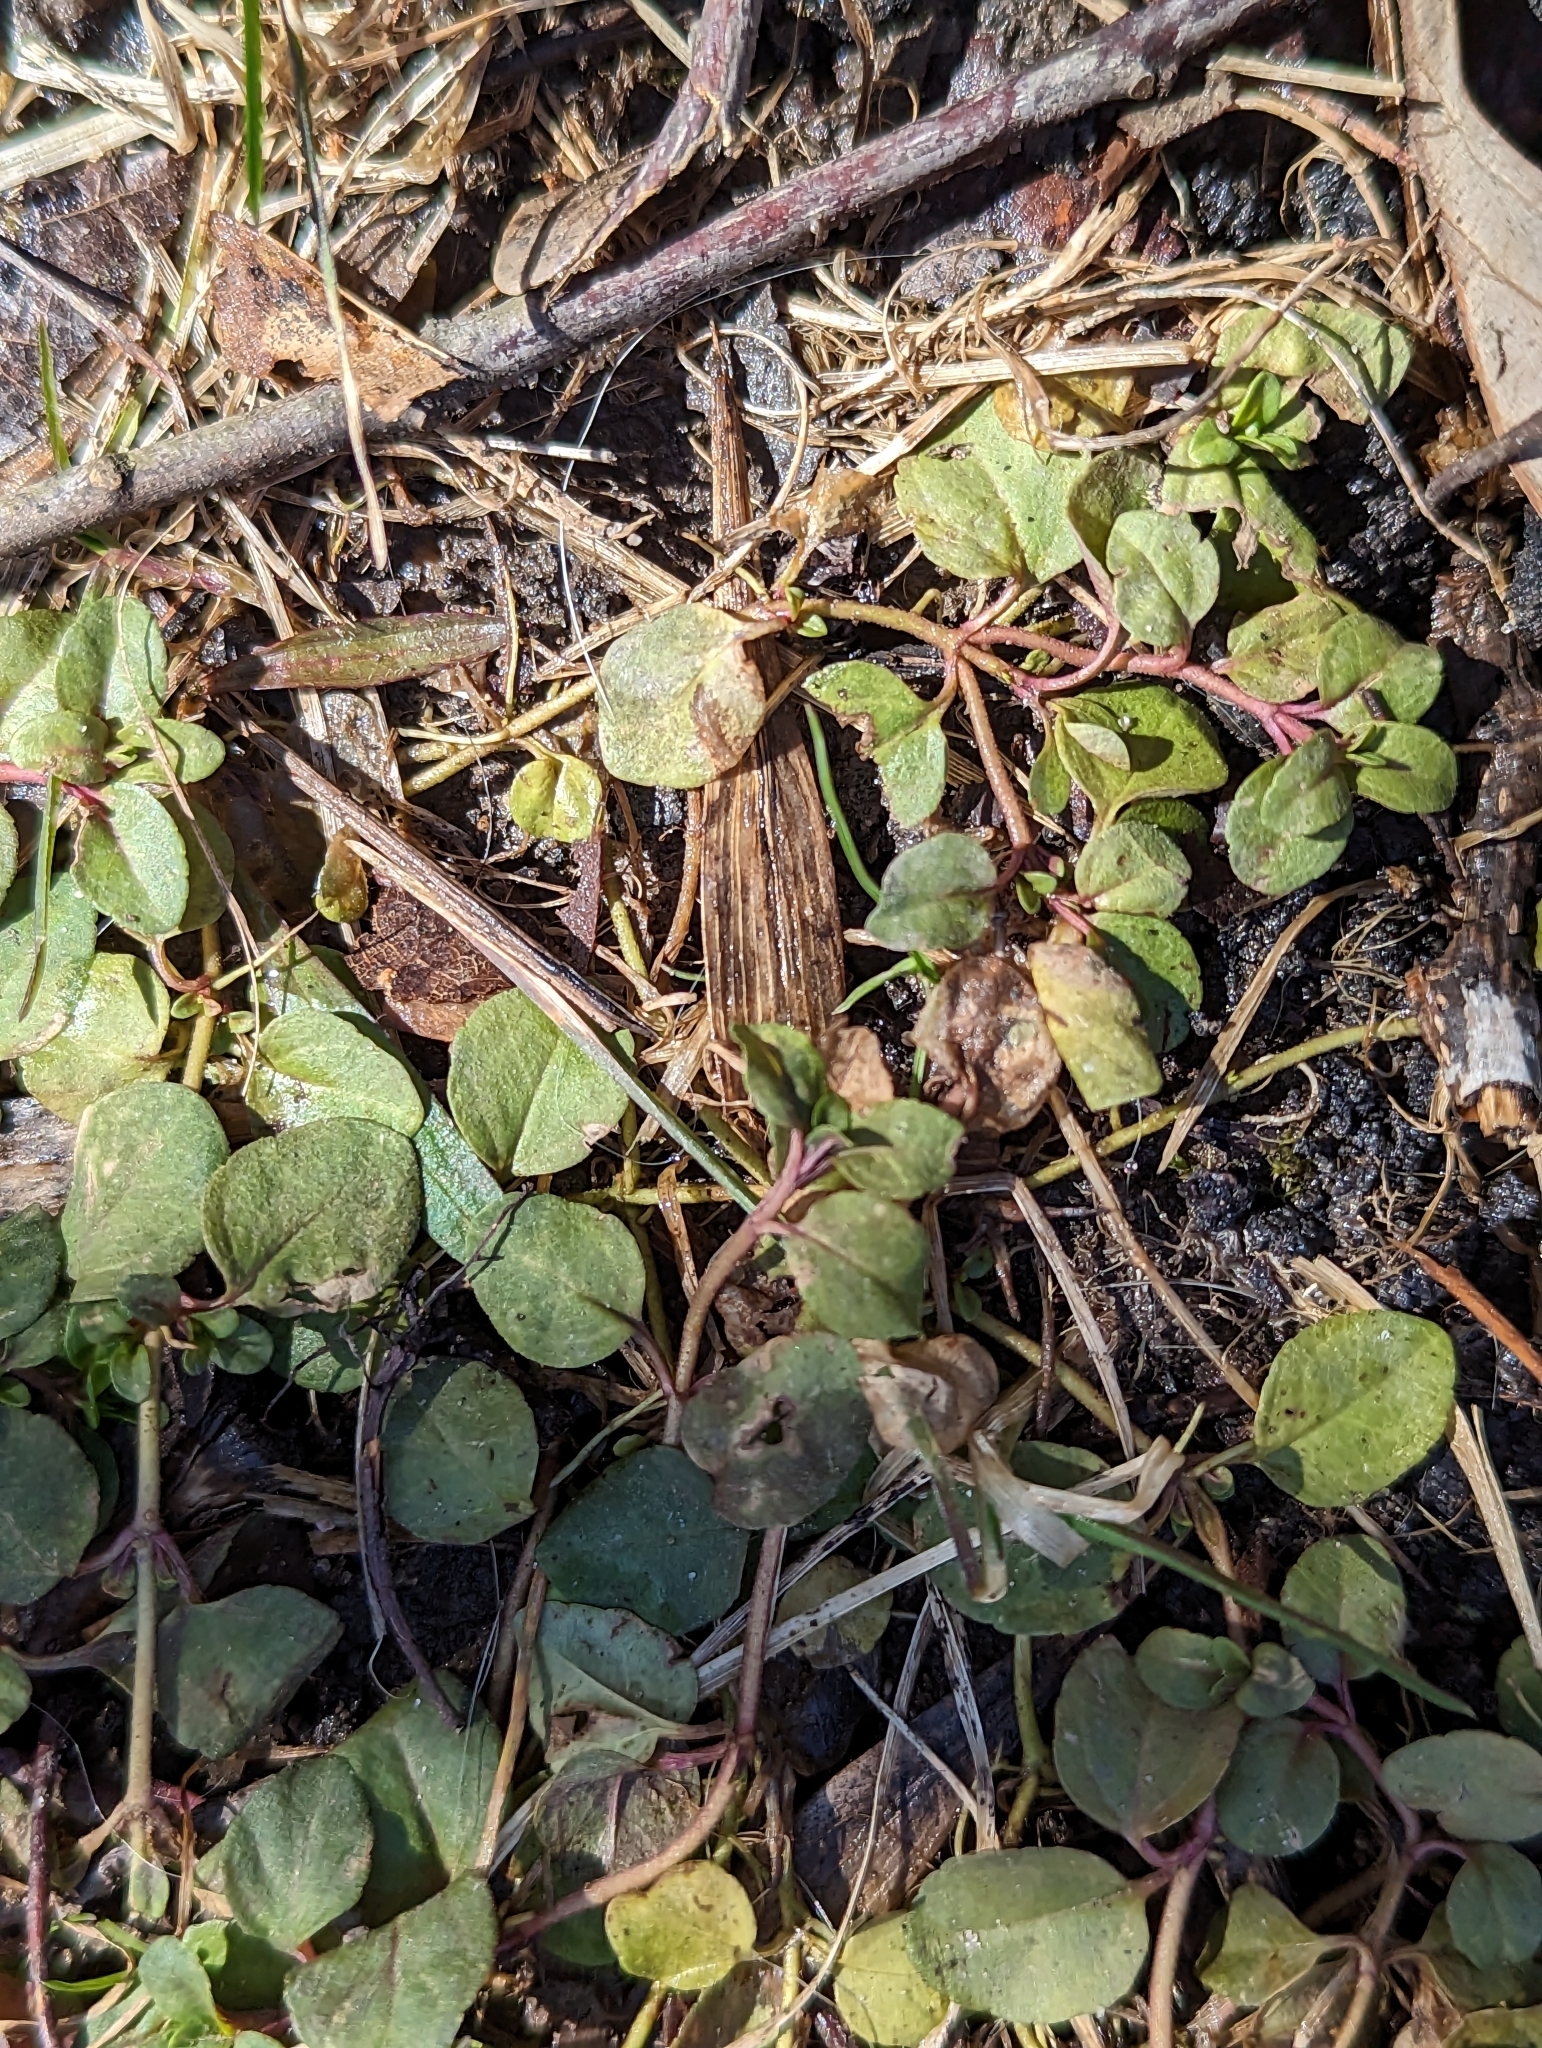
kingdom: Plantae
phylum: Tracheophyta
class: Magnoliopsida
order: Ericales
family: Primulaceae
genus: Lysimachia
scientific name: Lysimachia nummularia
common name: Moneywort
